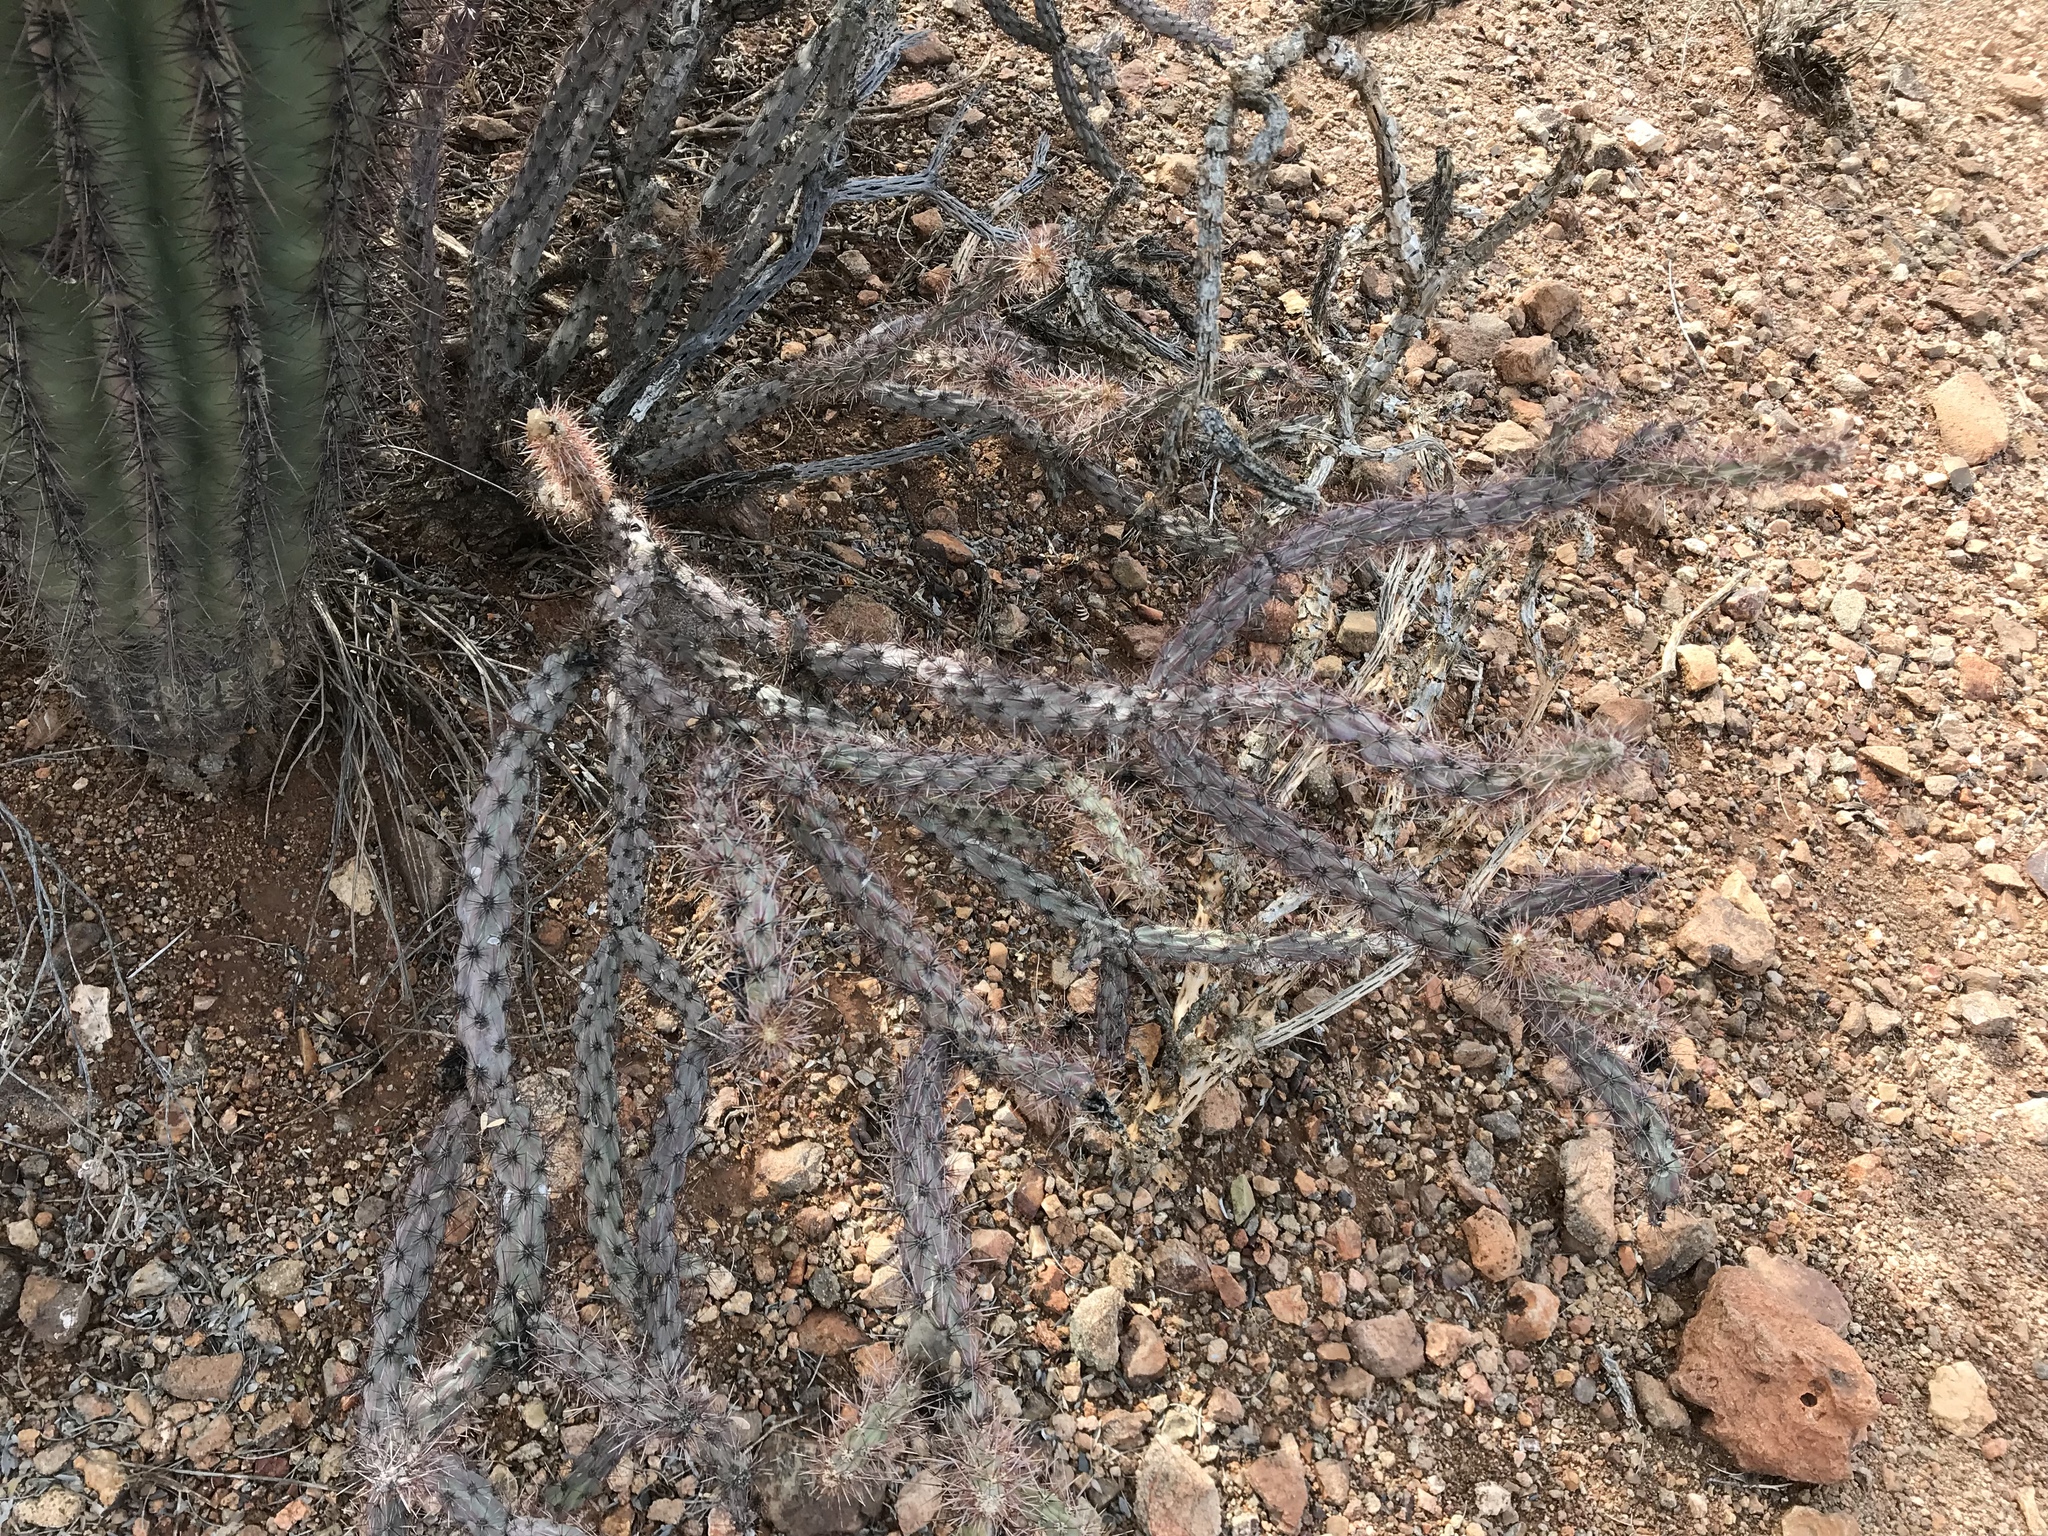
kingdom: Plantae
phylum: Tracheophyta
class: Magnoliopsida
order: Caryophyllales
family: Cactaceae
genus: Cylindropuntia
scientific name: Cylindropuntia thurberi
